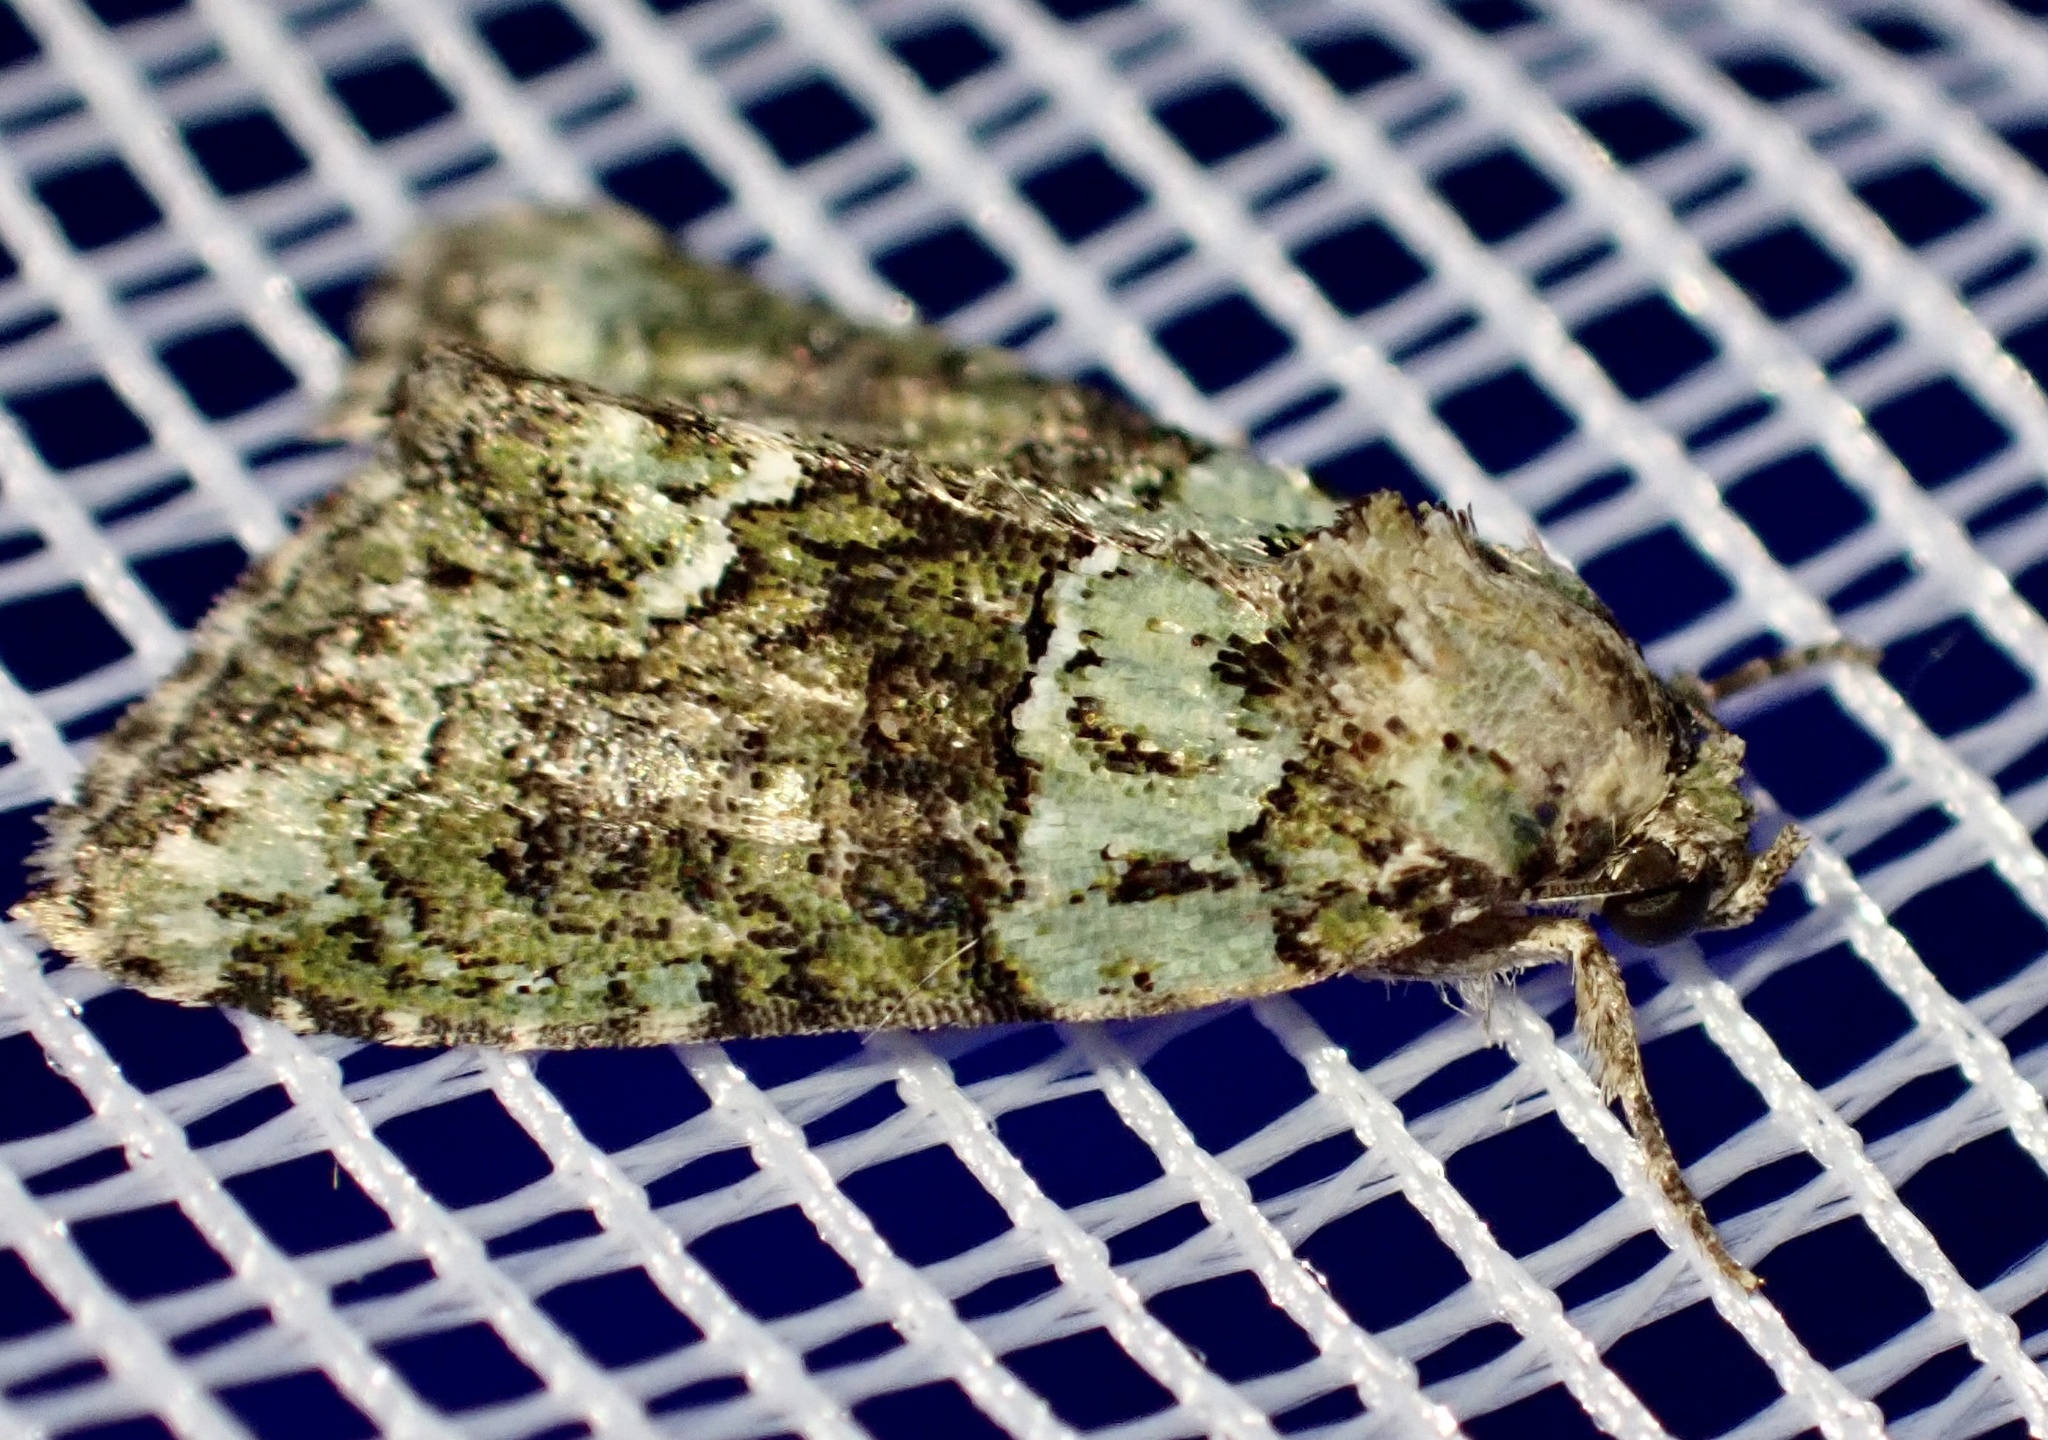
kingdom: Animalia
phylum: Arthropoda
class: Insecta
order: Lepidoptera
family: Noctuidae
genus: Cryphia
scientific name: Cryphia algae
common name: Tree-lichen beauty
